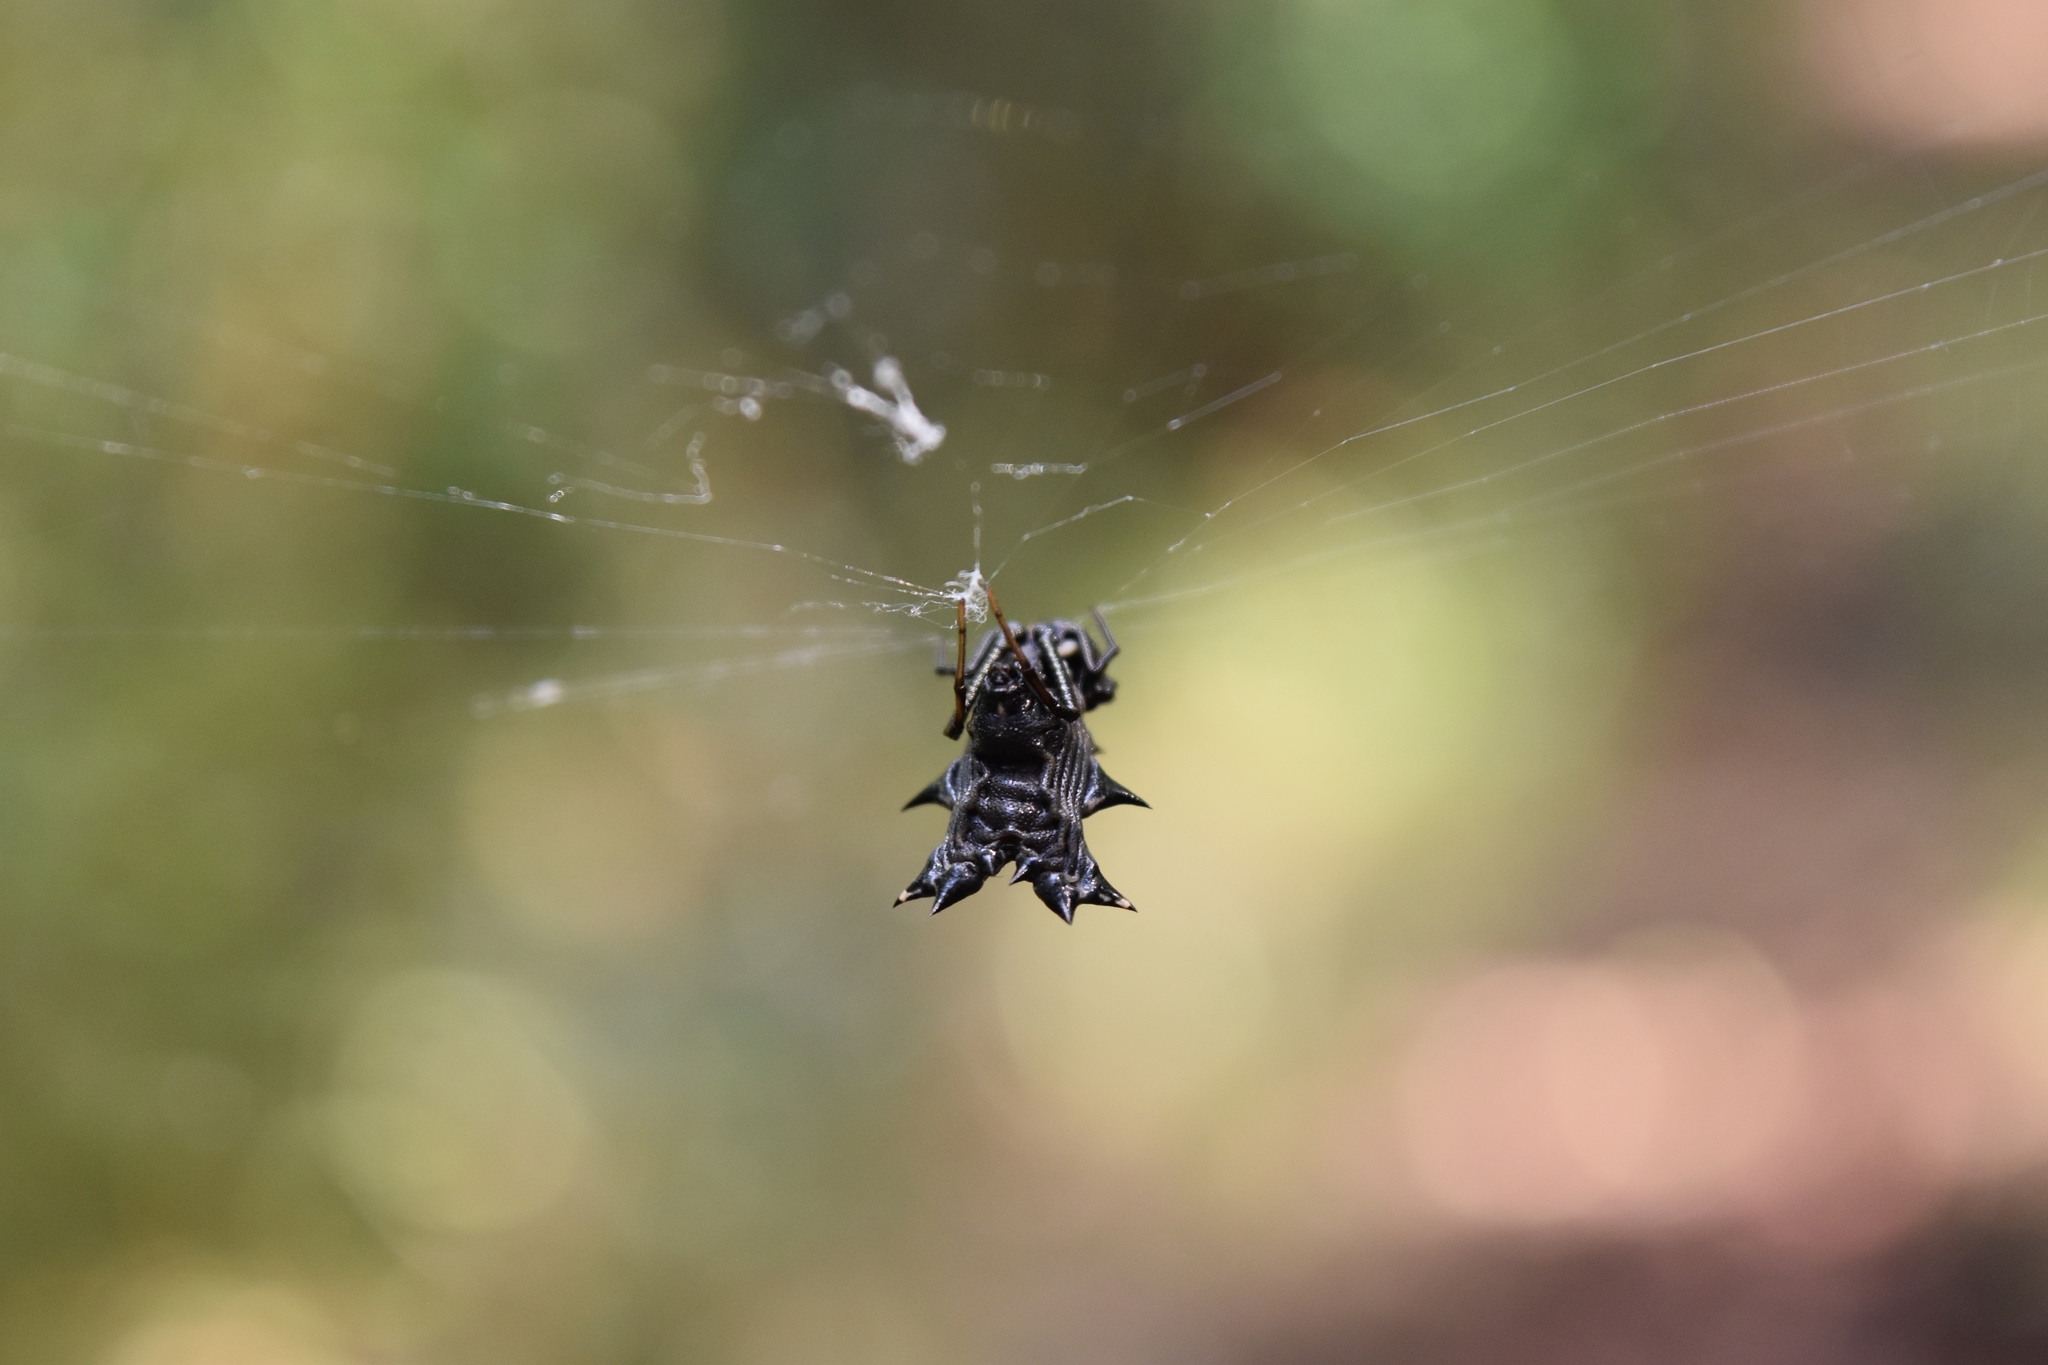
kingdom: Animalia
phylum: Arthropoda
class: Arachnida
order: Araneae
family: Araneidae
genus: Micrathena
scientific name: Micrathena gracilis
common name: Orb weavers
